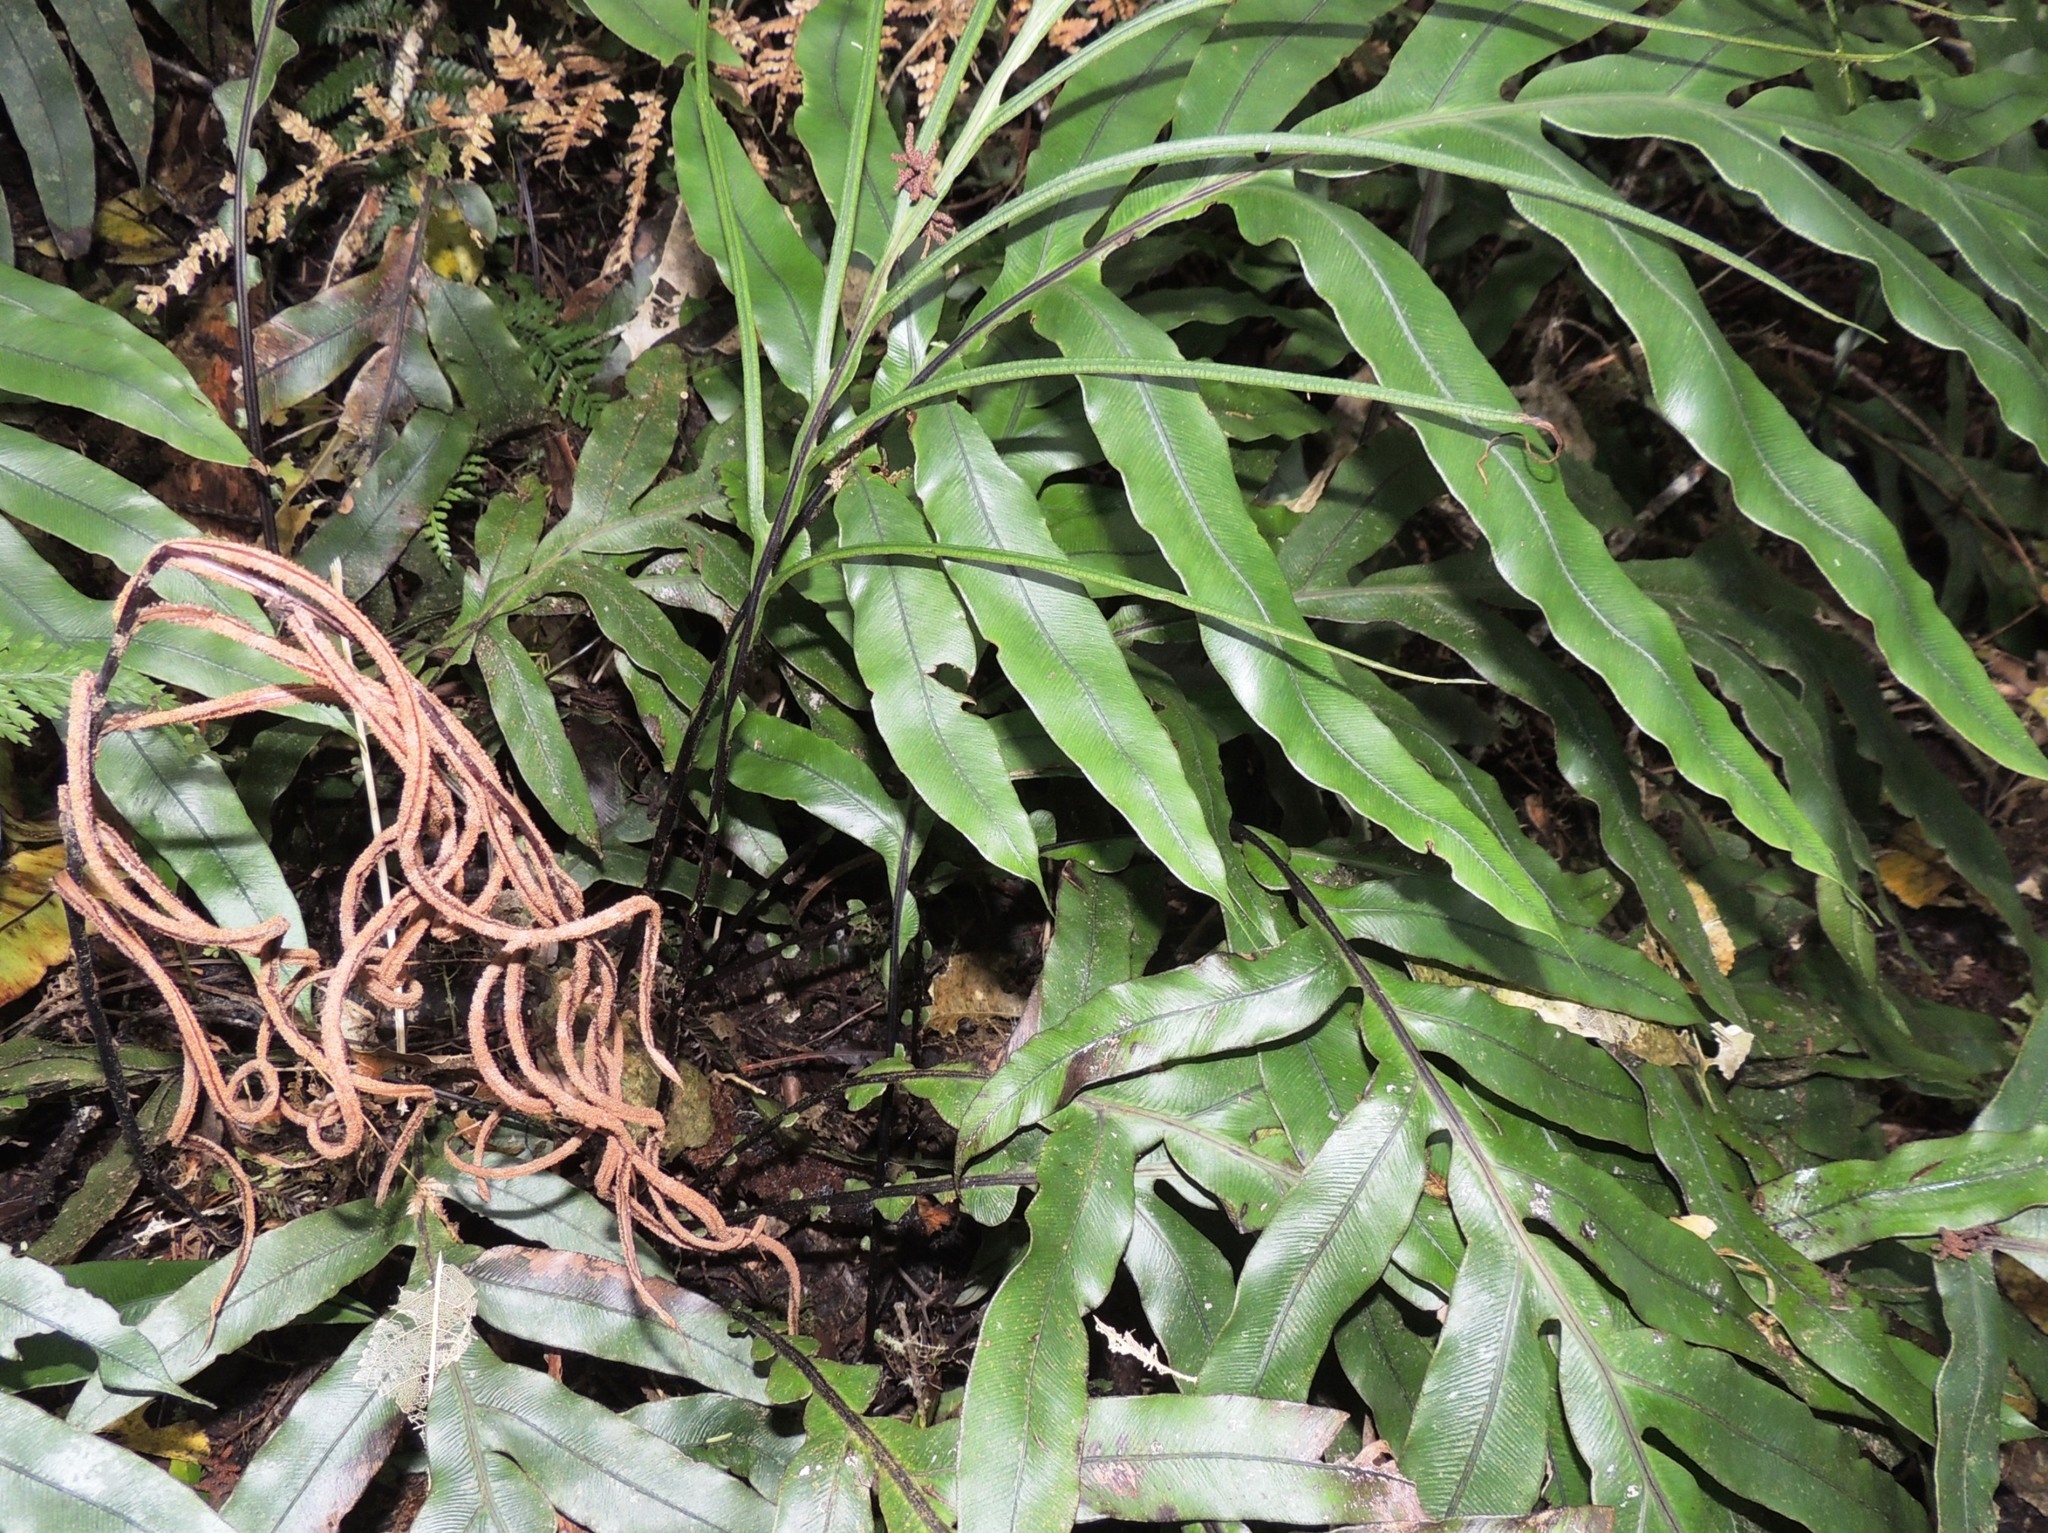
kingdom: Plantae
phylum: Tracheophyta
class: Polypodiopsida
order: Polypodiales
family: Blechnaceae
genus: Austroblechnum
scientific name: Austroblechnum colensoi
